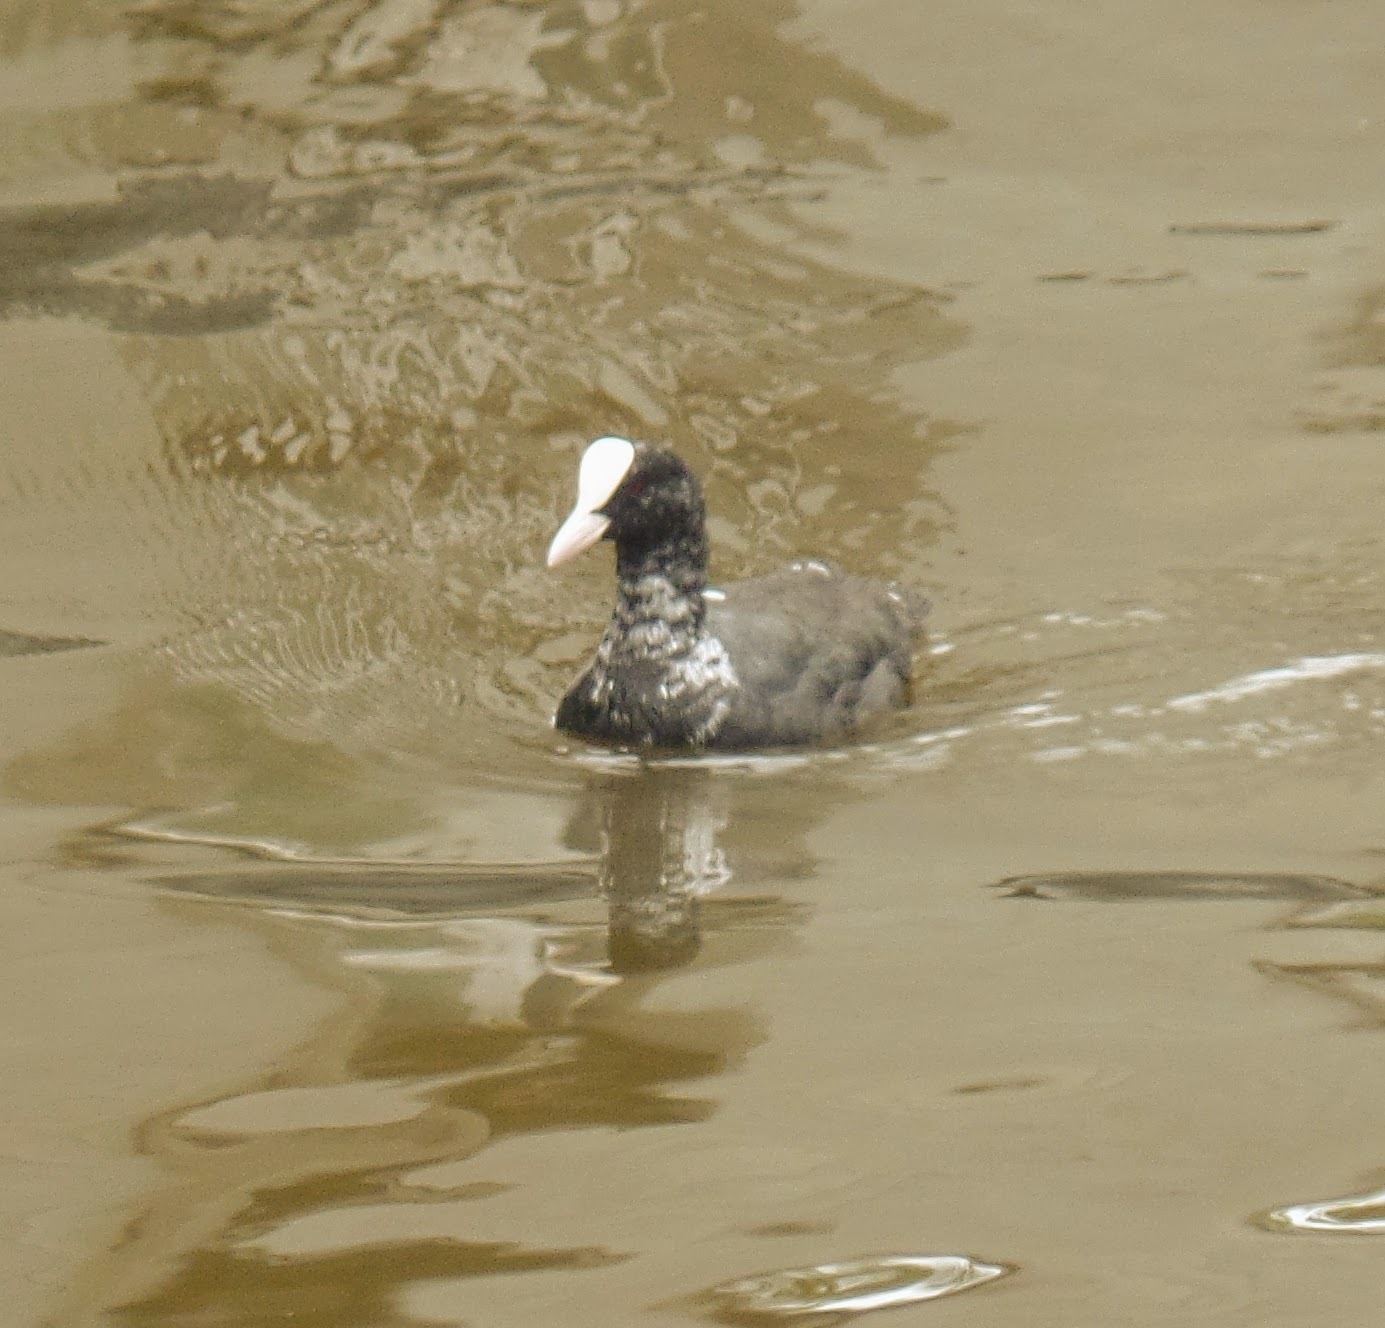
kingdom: Animalia
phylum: Chordata
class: Aves
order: Gruiformes
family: Rallidae
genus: Fulica
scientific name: Fulica atra
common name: Eurasian coot
